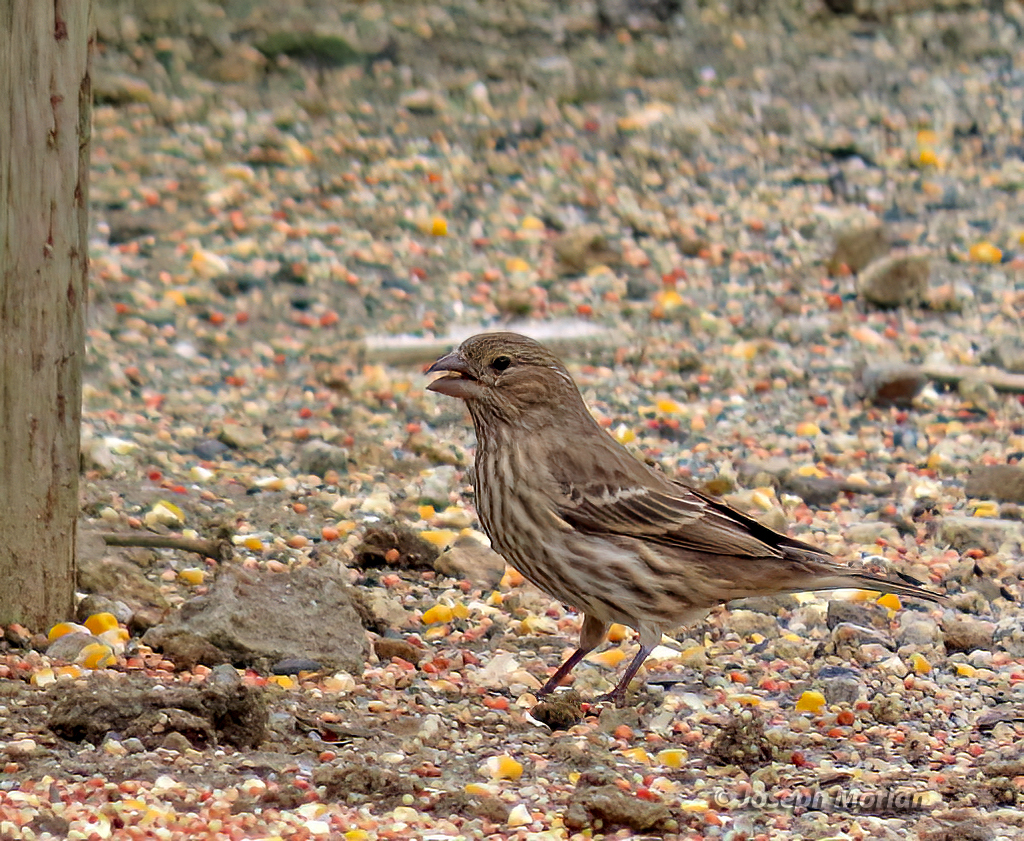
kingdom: Animalia
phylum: Chordata
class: Aves
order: Passeriformes
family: Fringillidae
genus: Haemorhous
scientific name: Haemorhous mexicanus
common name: House finch
